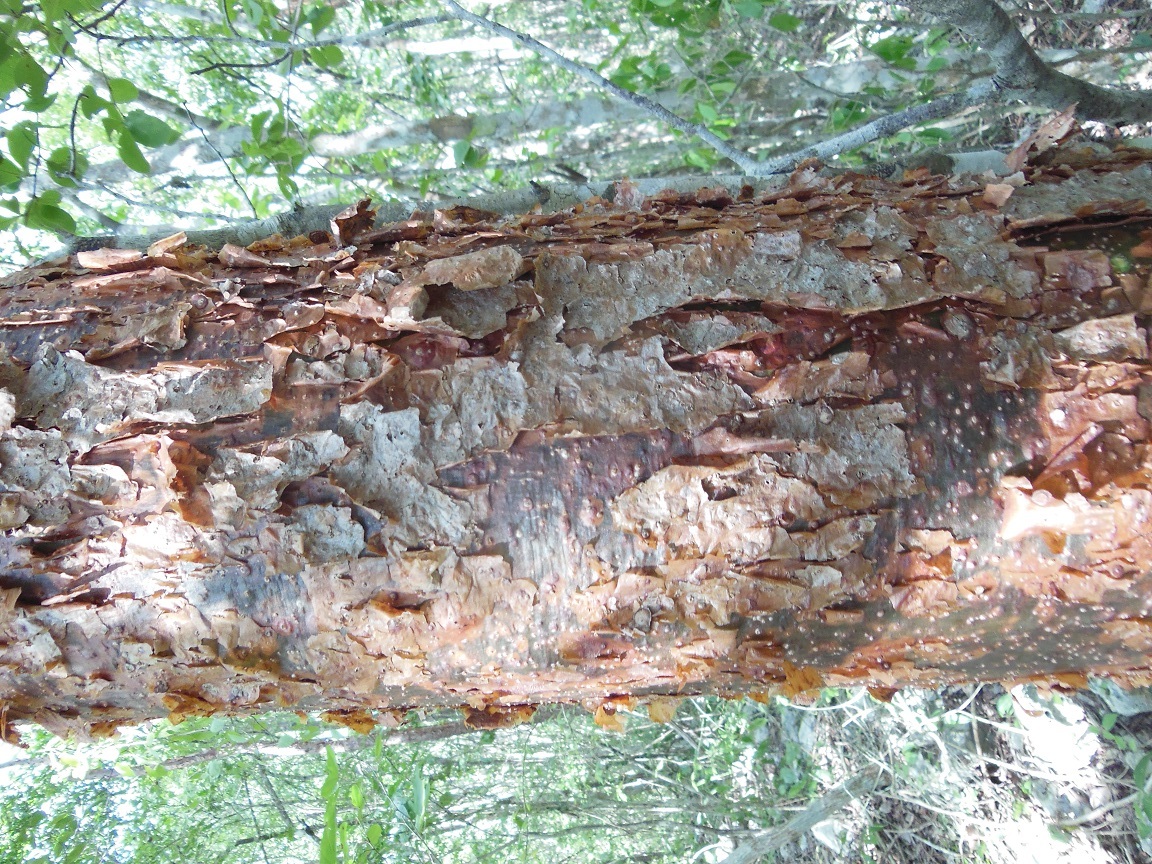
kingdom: Plantae
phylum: Tracheophyta
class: Magnoliopsida
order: Sapindales
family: Burseraceae
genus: Bursera
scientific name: Bursera simaruba
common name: Turpentine tree
